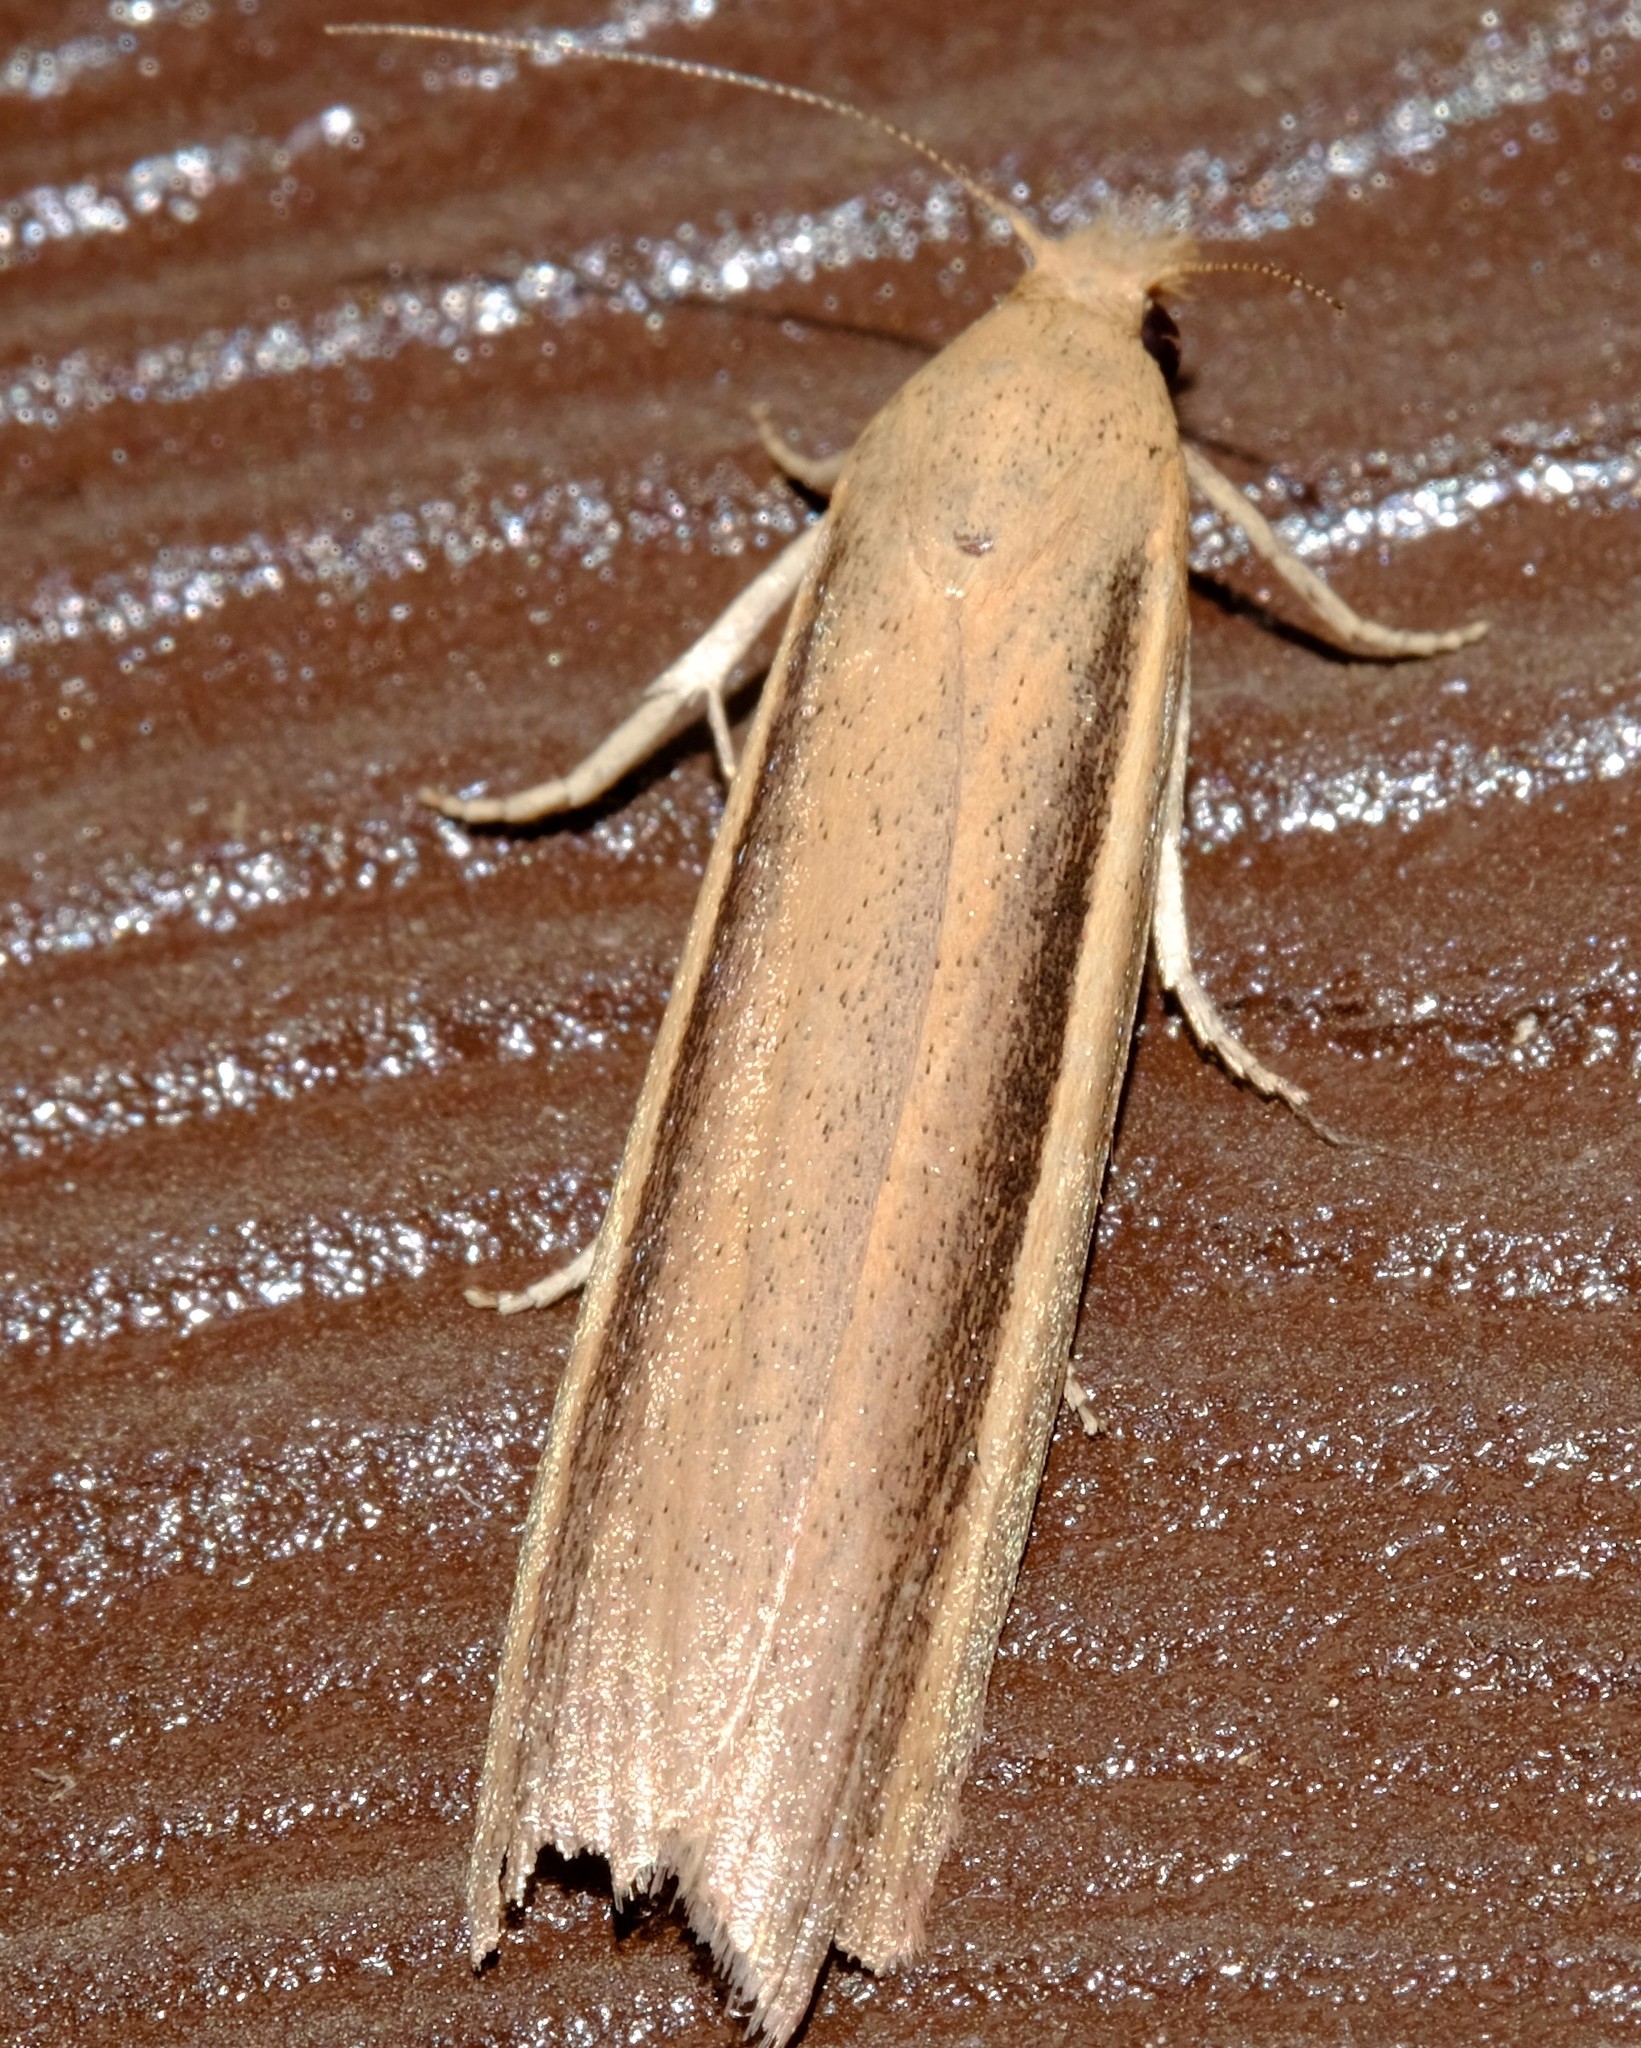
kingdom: Animalia
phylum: Arthropoda
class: Insecta
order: Lepidoptera
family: Pyralidae
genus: Meyriccia
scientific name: Meyriccia latro
